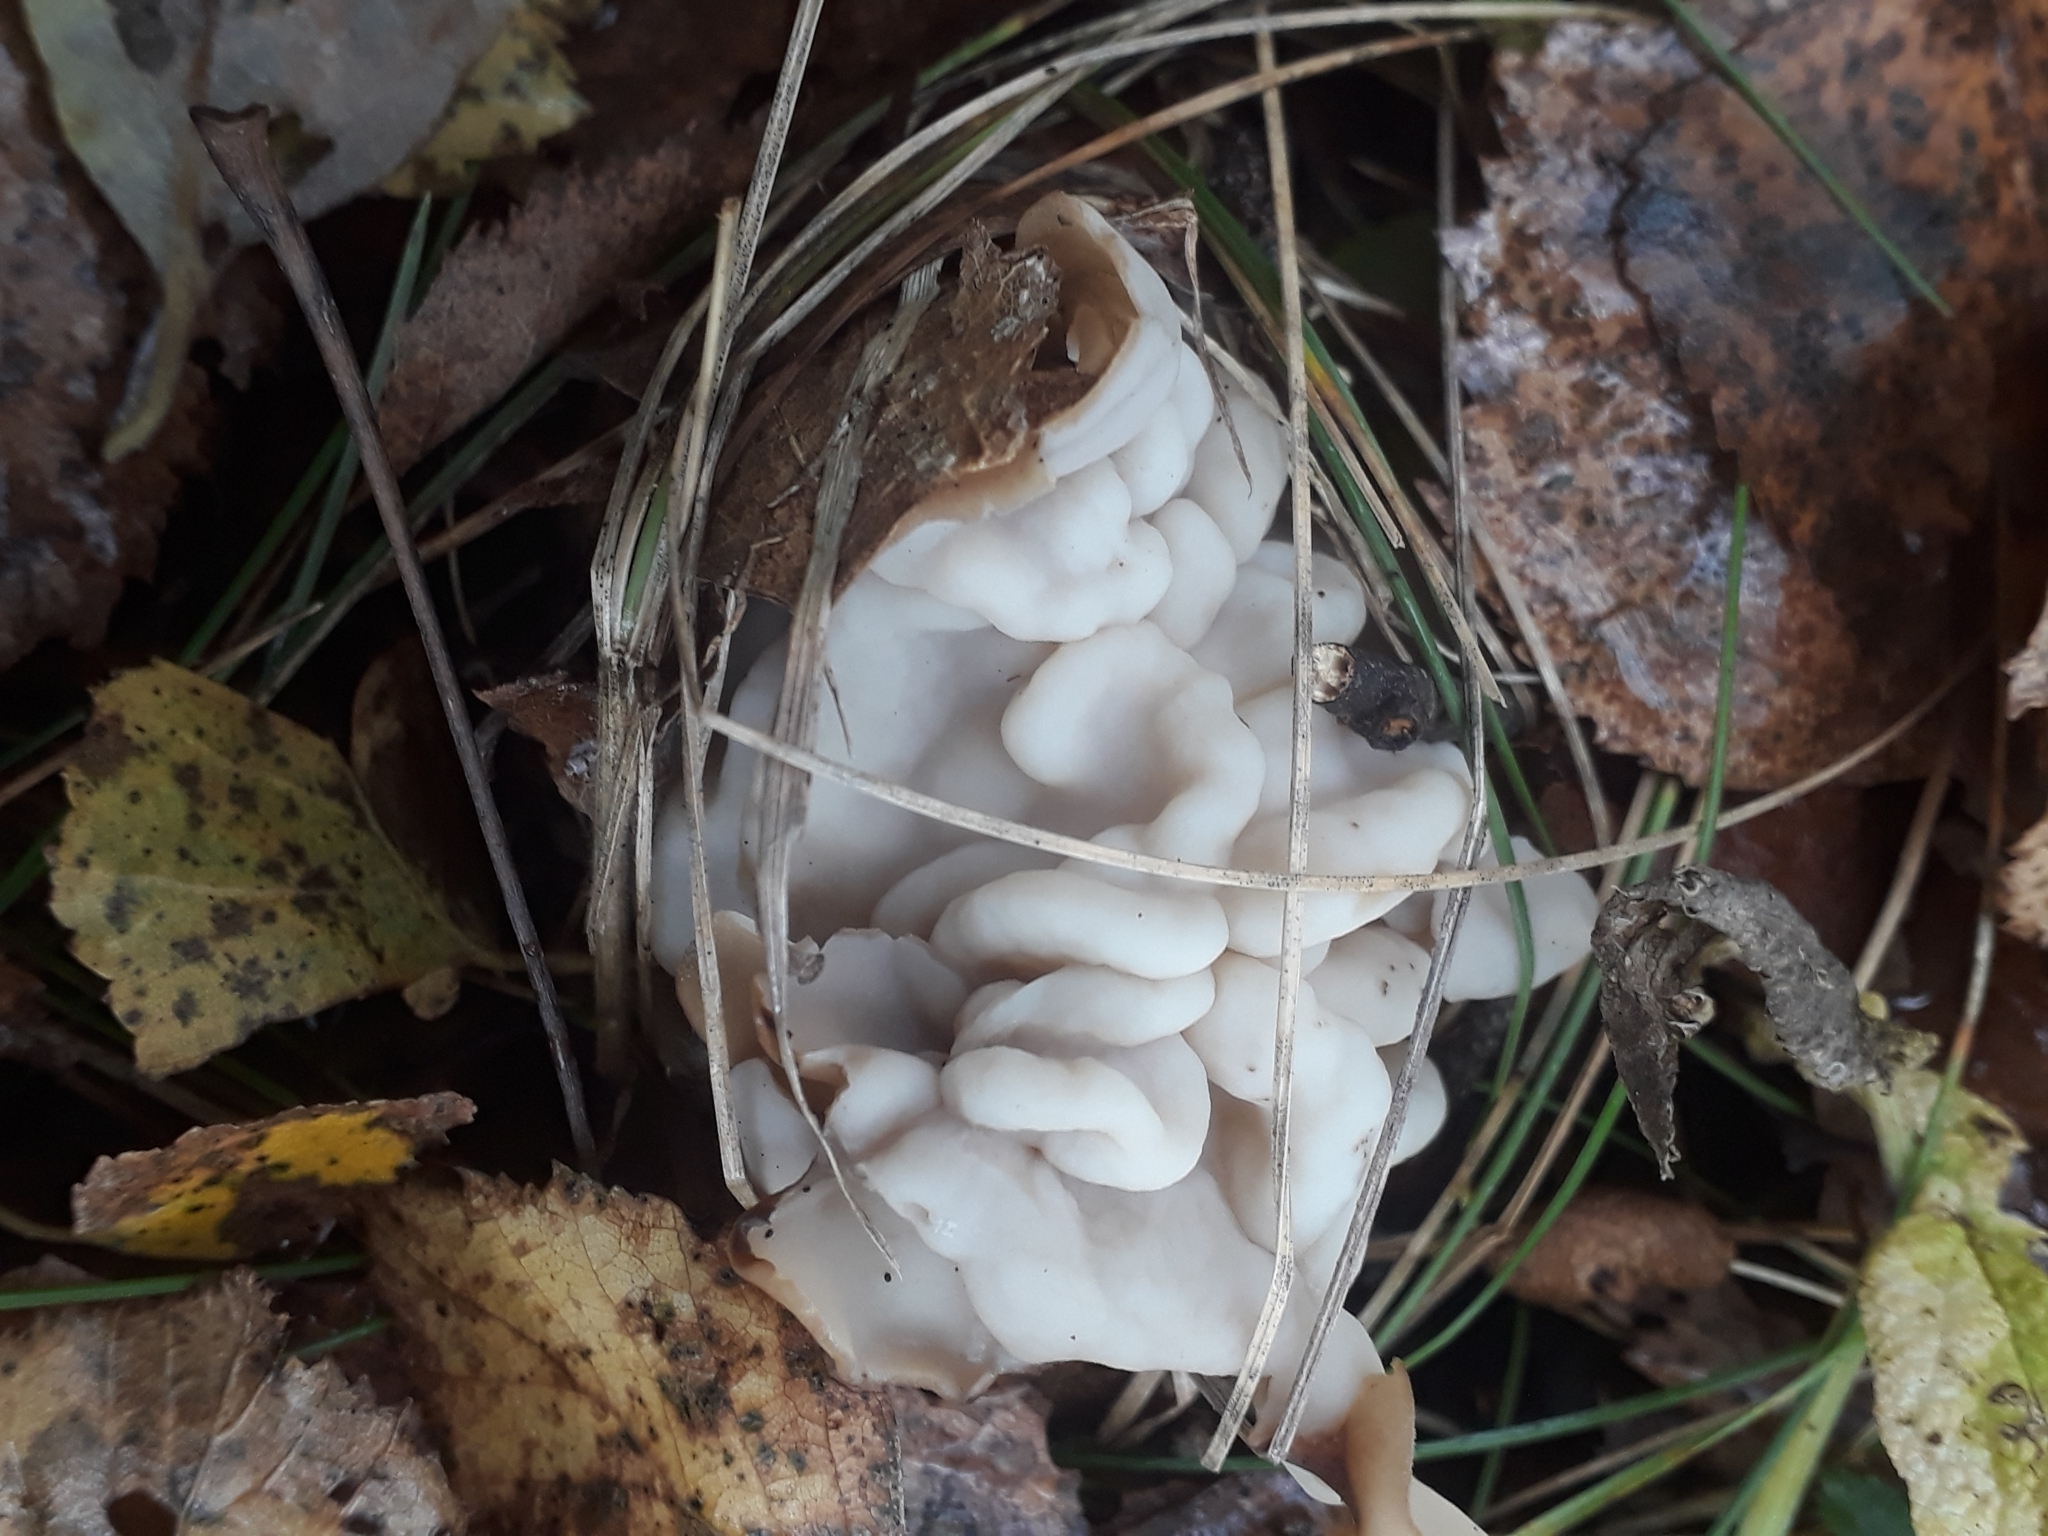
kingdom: Fungi
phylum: Ascomycota
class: Pezizomycetes
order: Pezizales
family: Helvellaceae
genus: Helvella
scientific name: Helvella crispa
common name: White saddle
